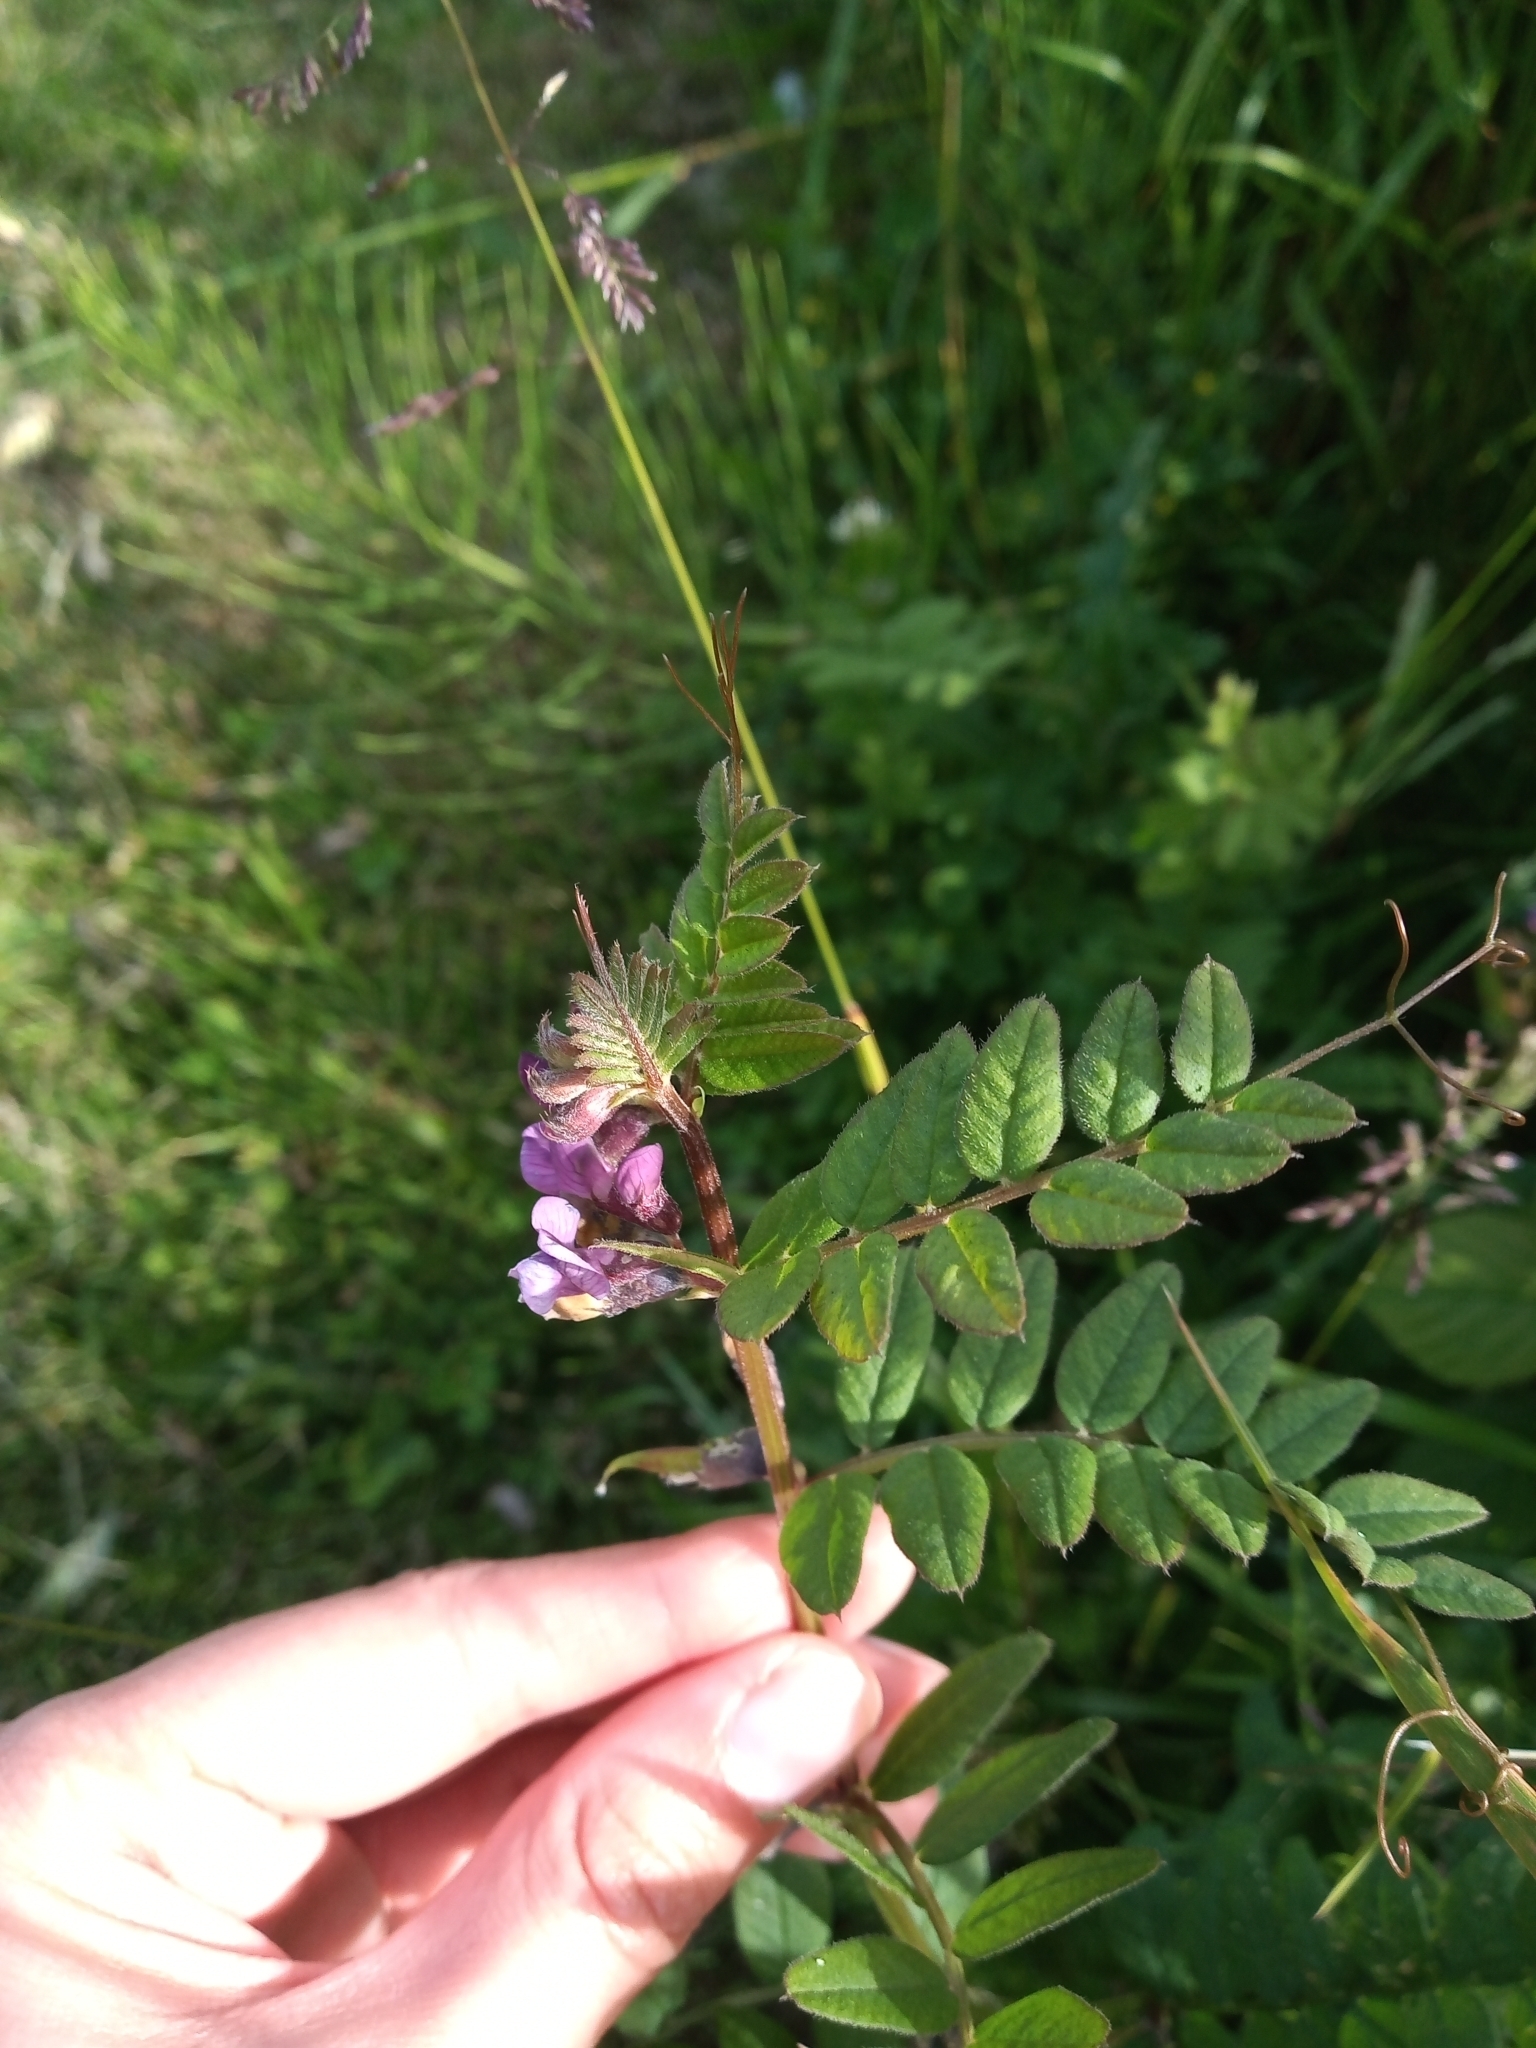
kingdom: Plantae
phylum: Tracheophyta
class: Magnoliopsida
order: Fabales
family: Fabaceae
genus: Vicia
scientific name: Vicia sepium
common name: Bush vetch
